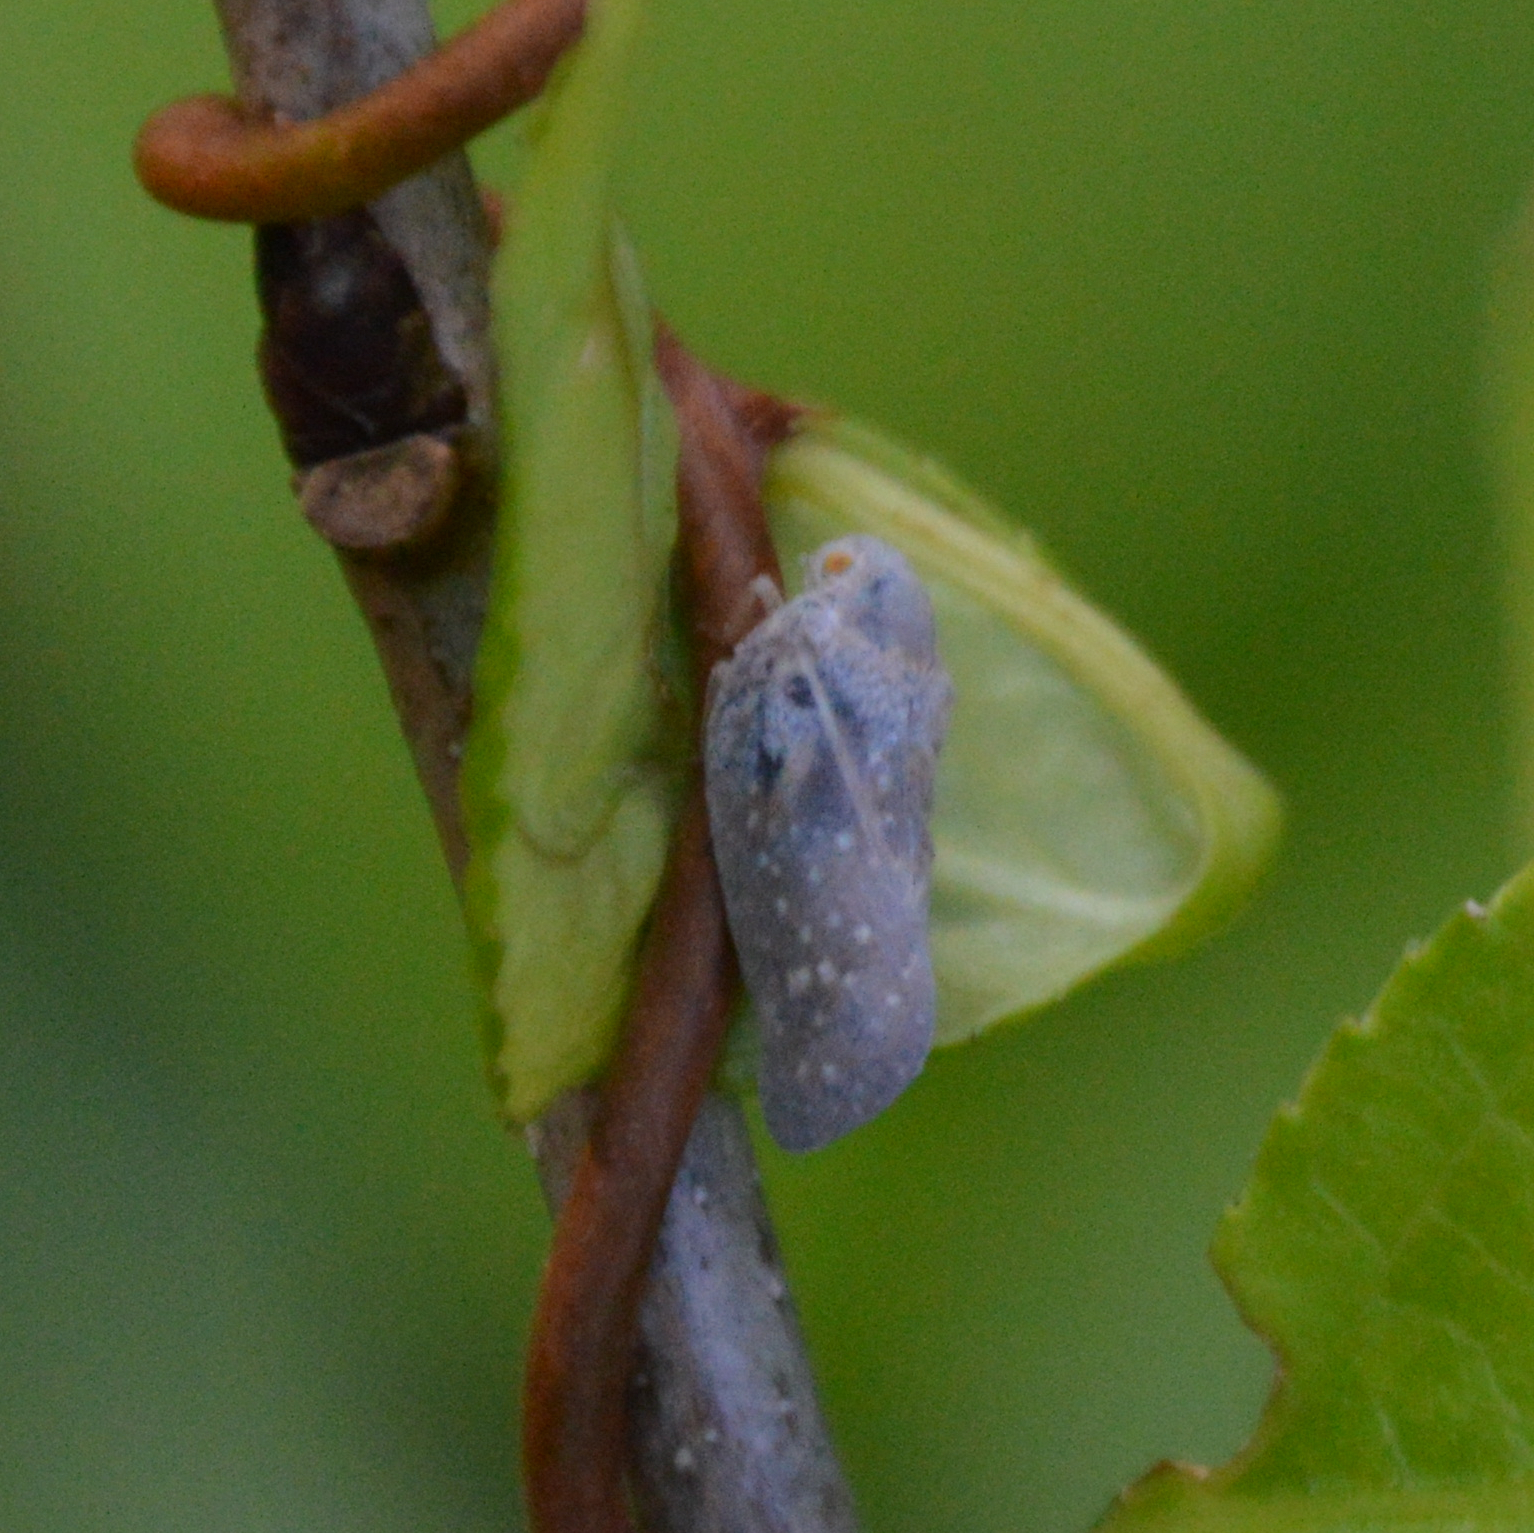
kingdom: Animalia
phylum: Arthropoda
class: Insecta
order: Hemiptera
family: Flatidae
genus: Metcalfa
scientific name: Metcalfa pruinosa
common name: Citrus flatid planthopper
